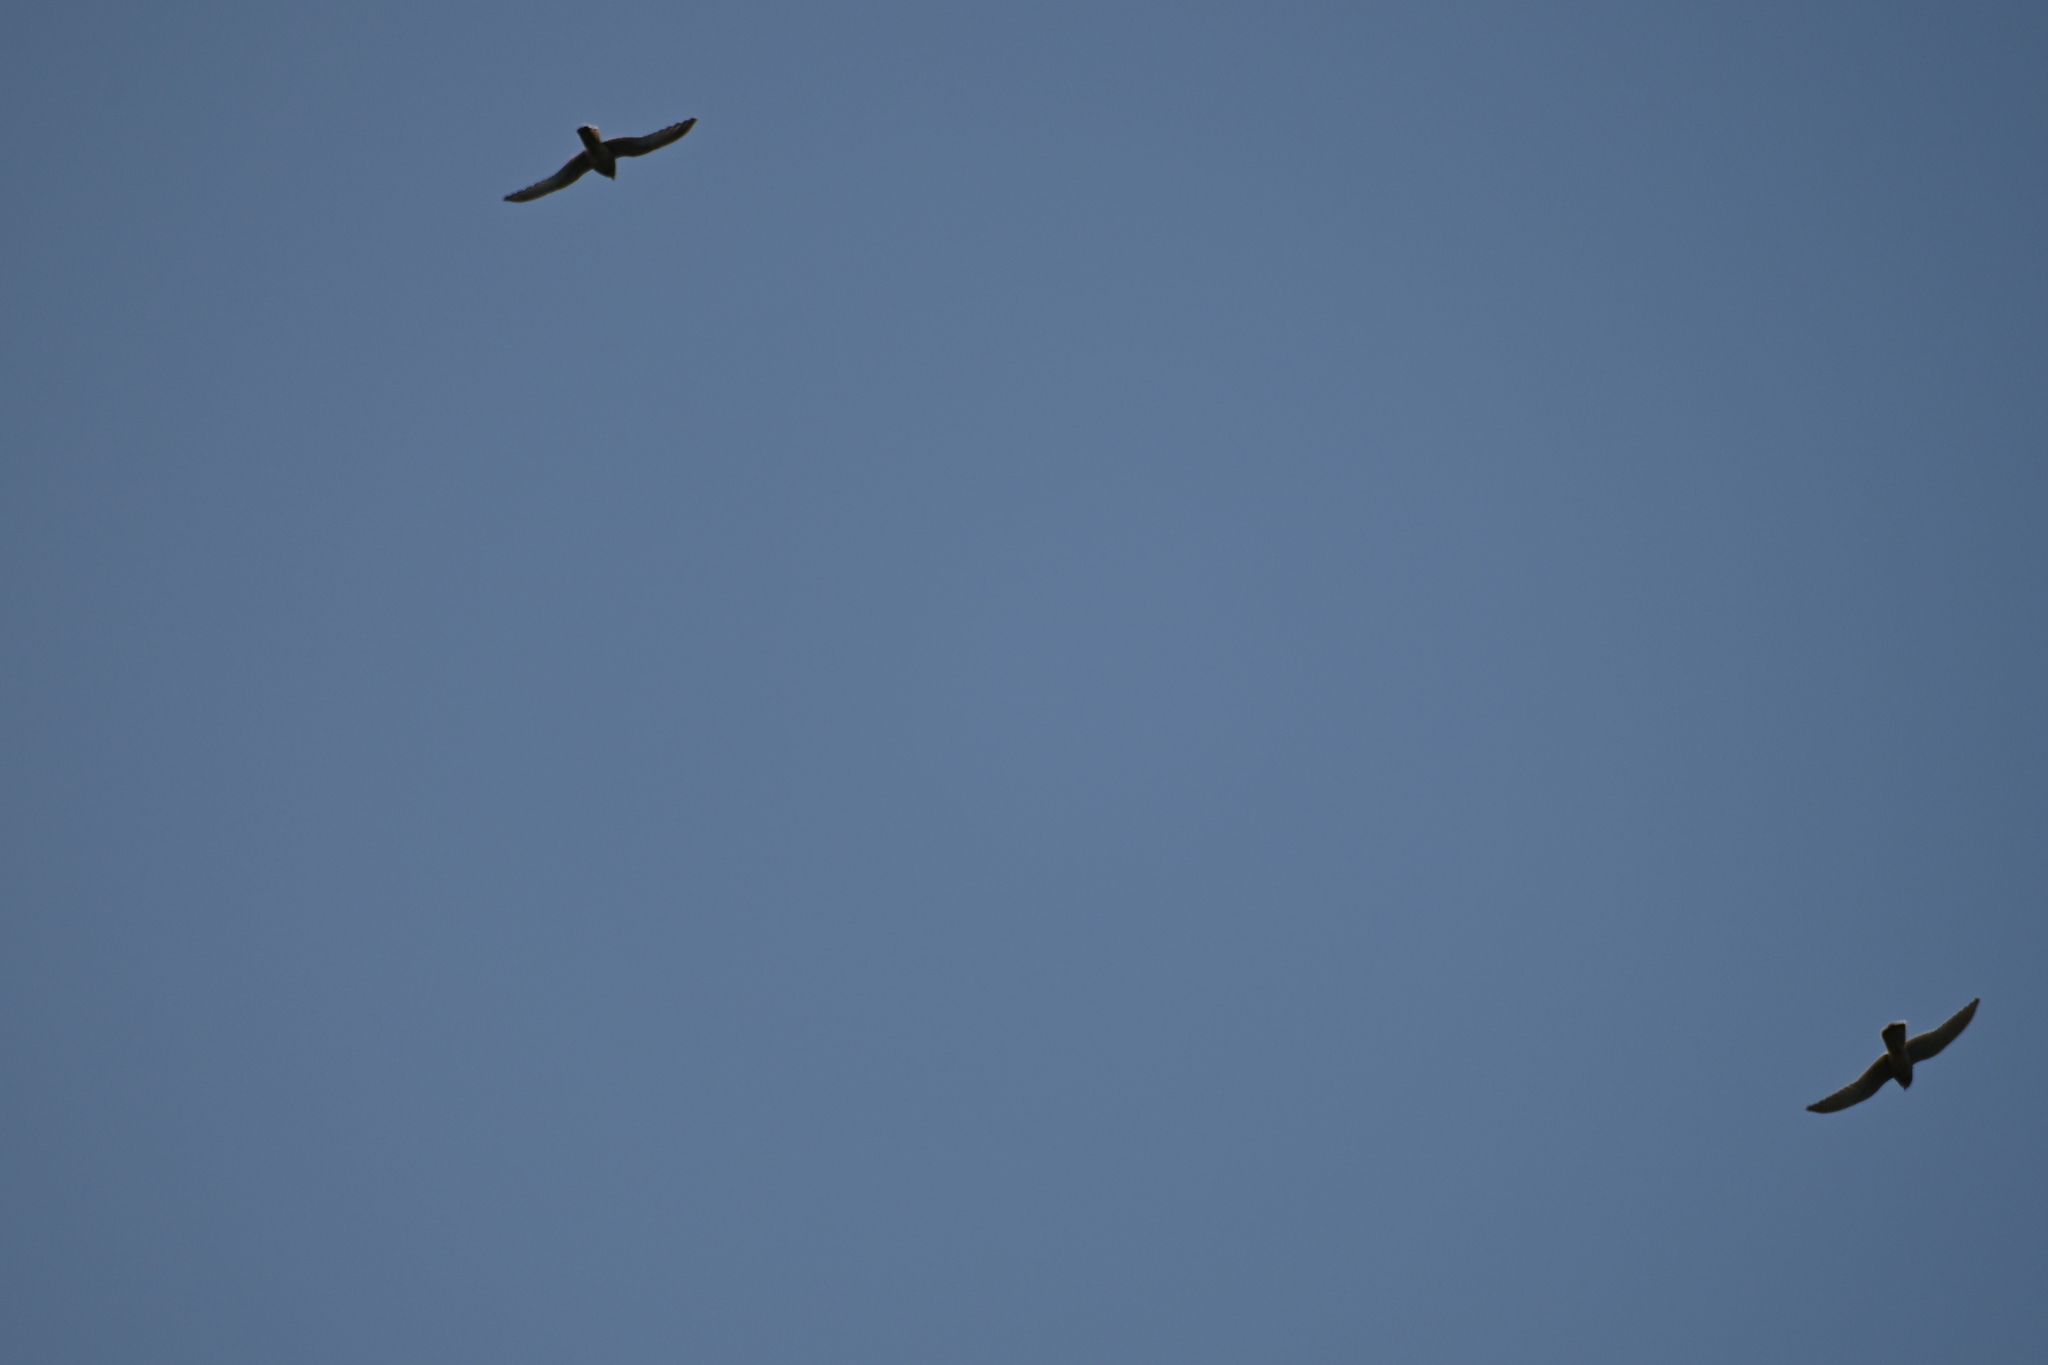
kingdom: Animalia
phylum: Chordata
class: Aves
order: Falconiformes
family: Falconidae
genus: Falco
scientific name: Falco tinnunculus
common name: Common kestrel
